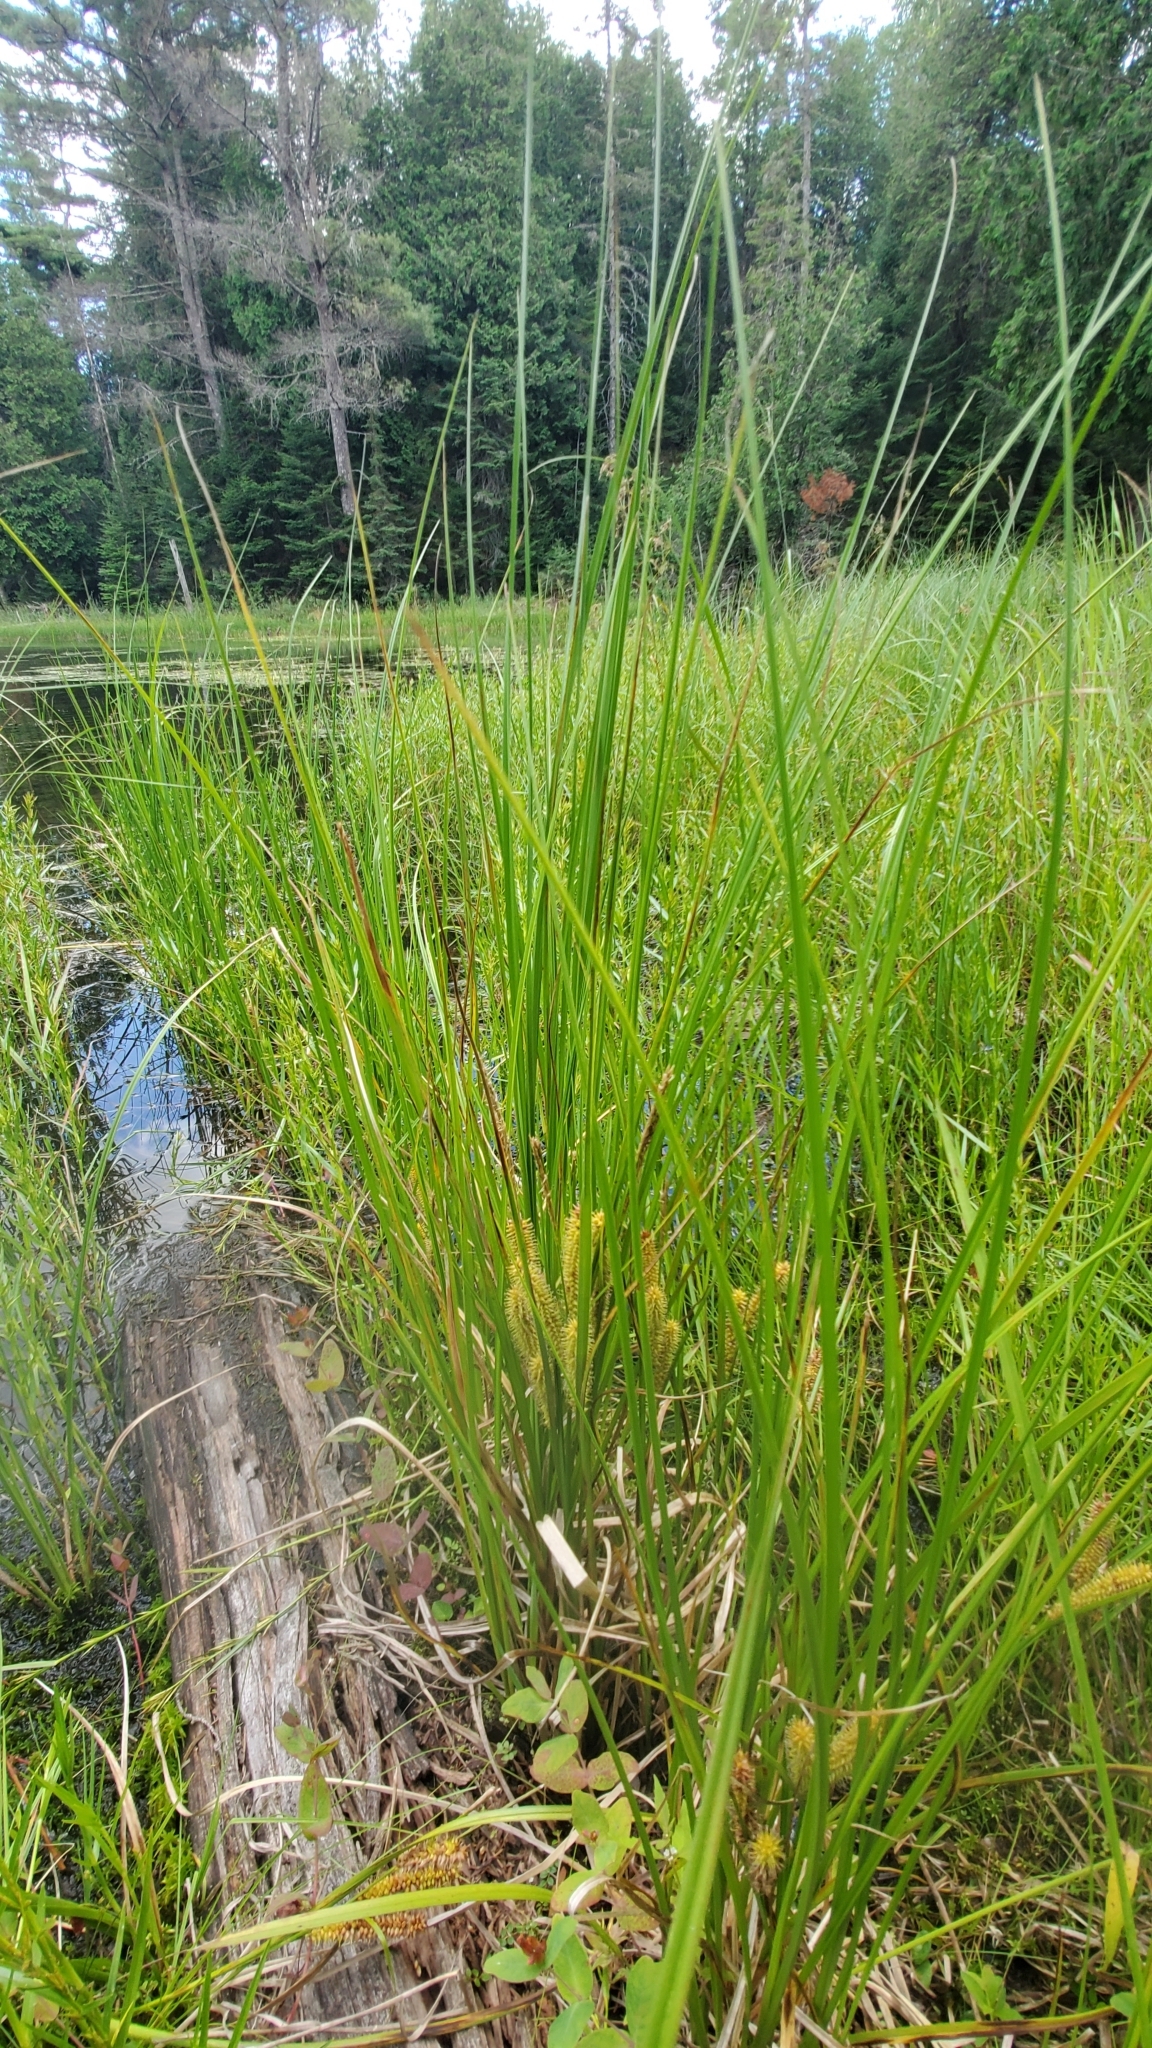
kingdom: Plantae
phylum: Tracheophyta
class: Liliopsida
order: Poales
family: Cyperaceae
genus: Carex
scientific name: Carex utriculata
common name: Beaked sedge
